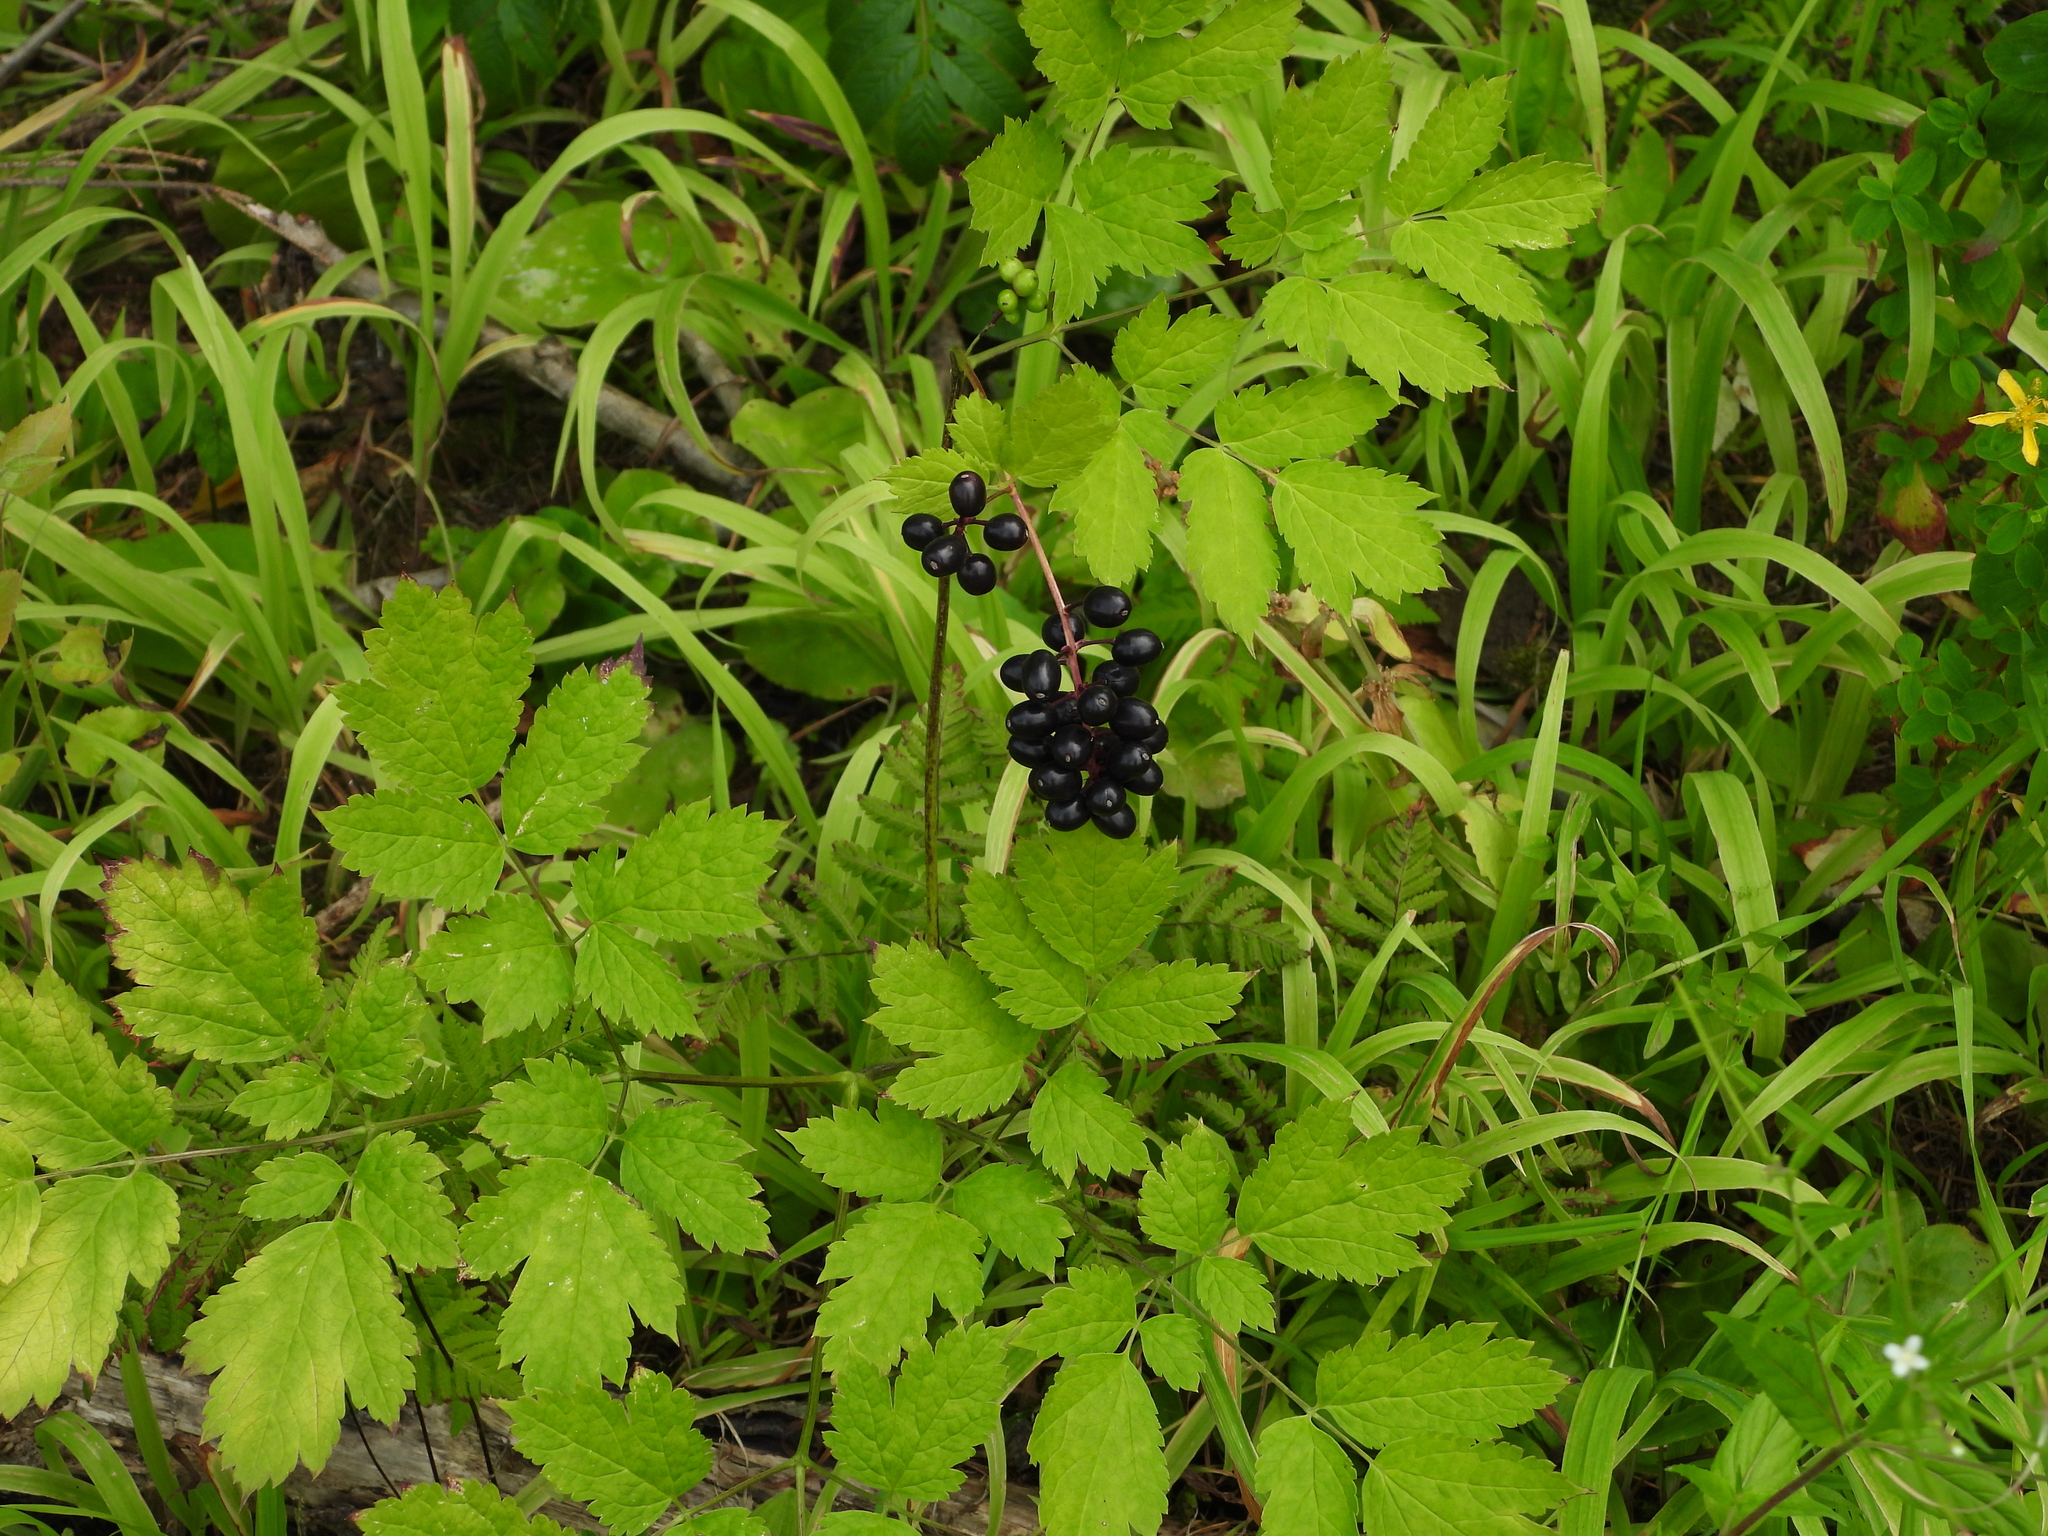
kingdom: Plantae
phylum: Tracheophyta
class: Magnoliopsida
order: Ranunculales
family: Ranunculaceae
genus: Actaea
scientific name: Actaea spicata
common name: Baneberry
